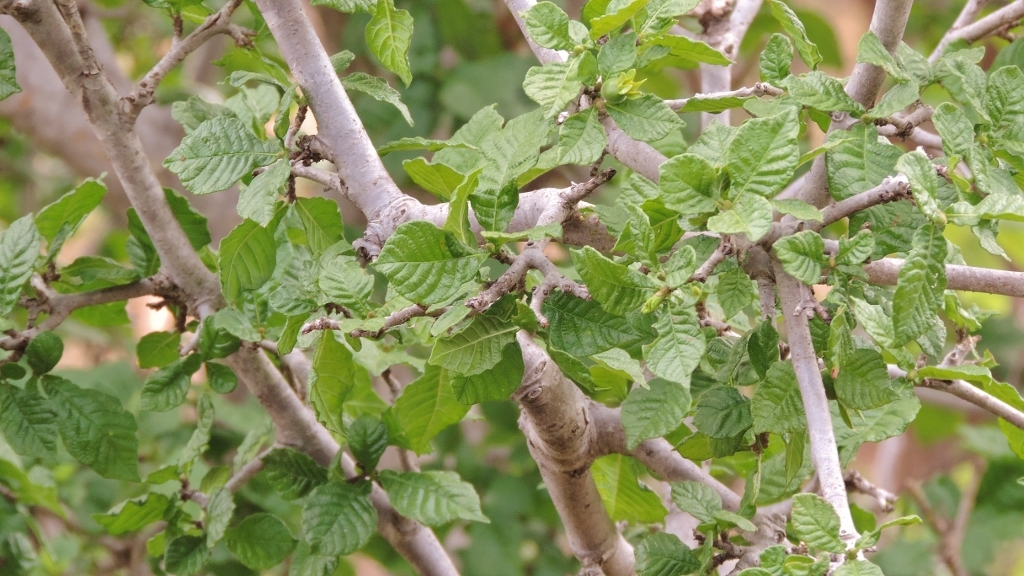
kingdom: Plantae
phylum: Tracheophyta
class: Magnoliopsida
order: Gentianales
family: Rubiaceae
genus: Gardenia
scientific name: Gardenia resiniflua
